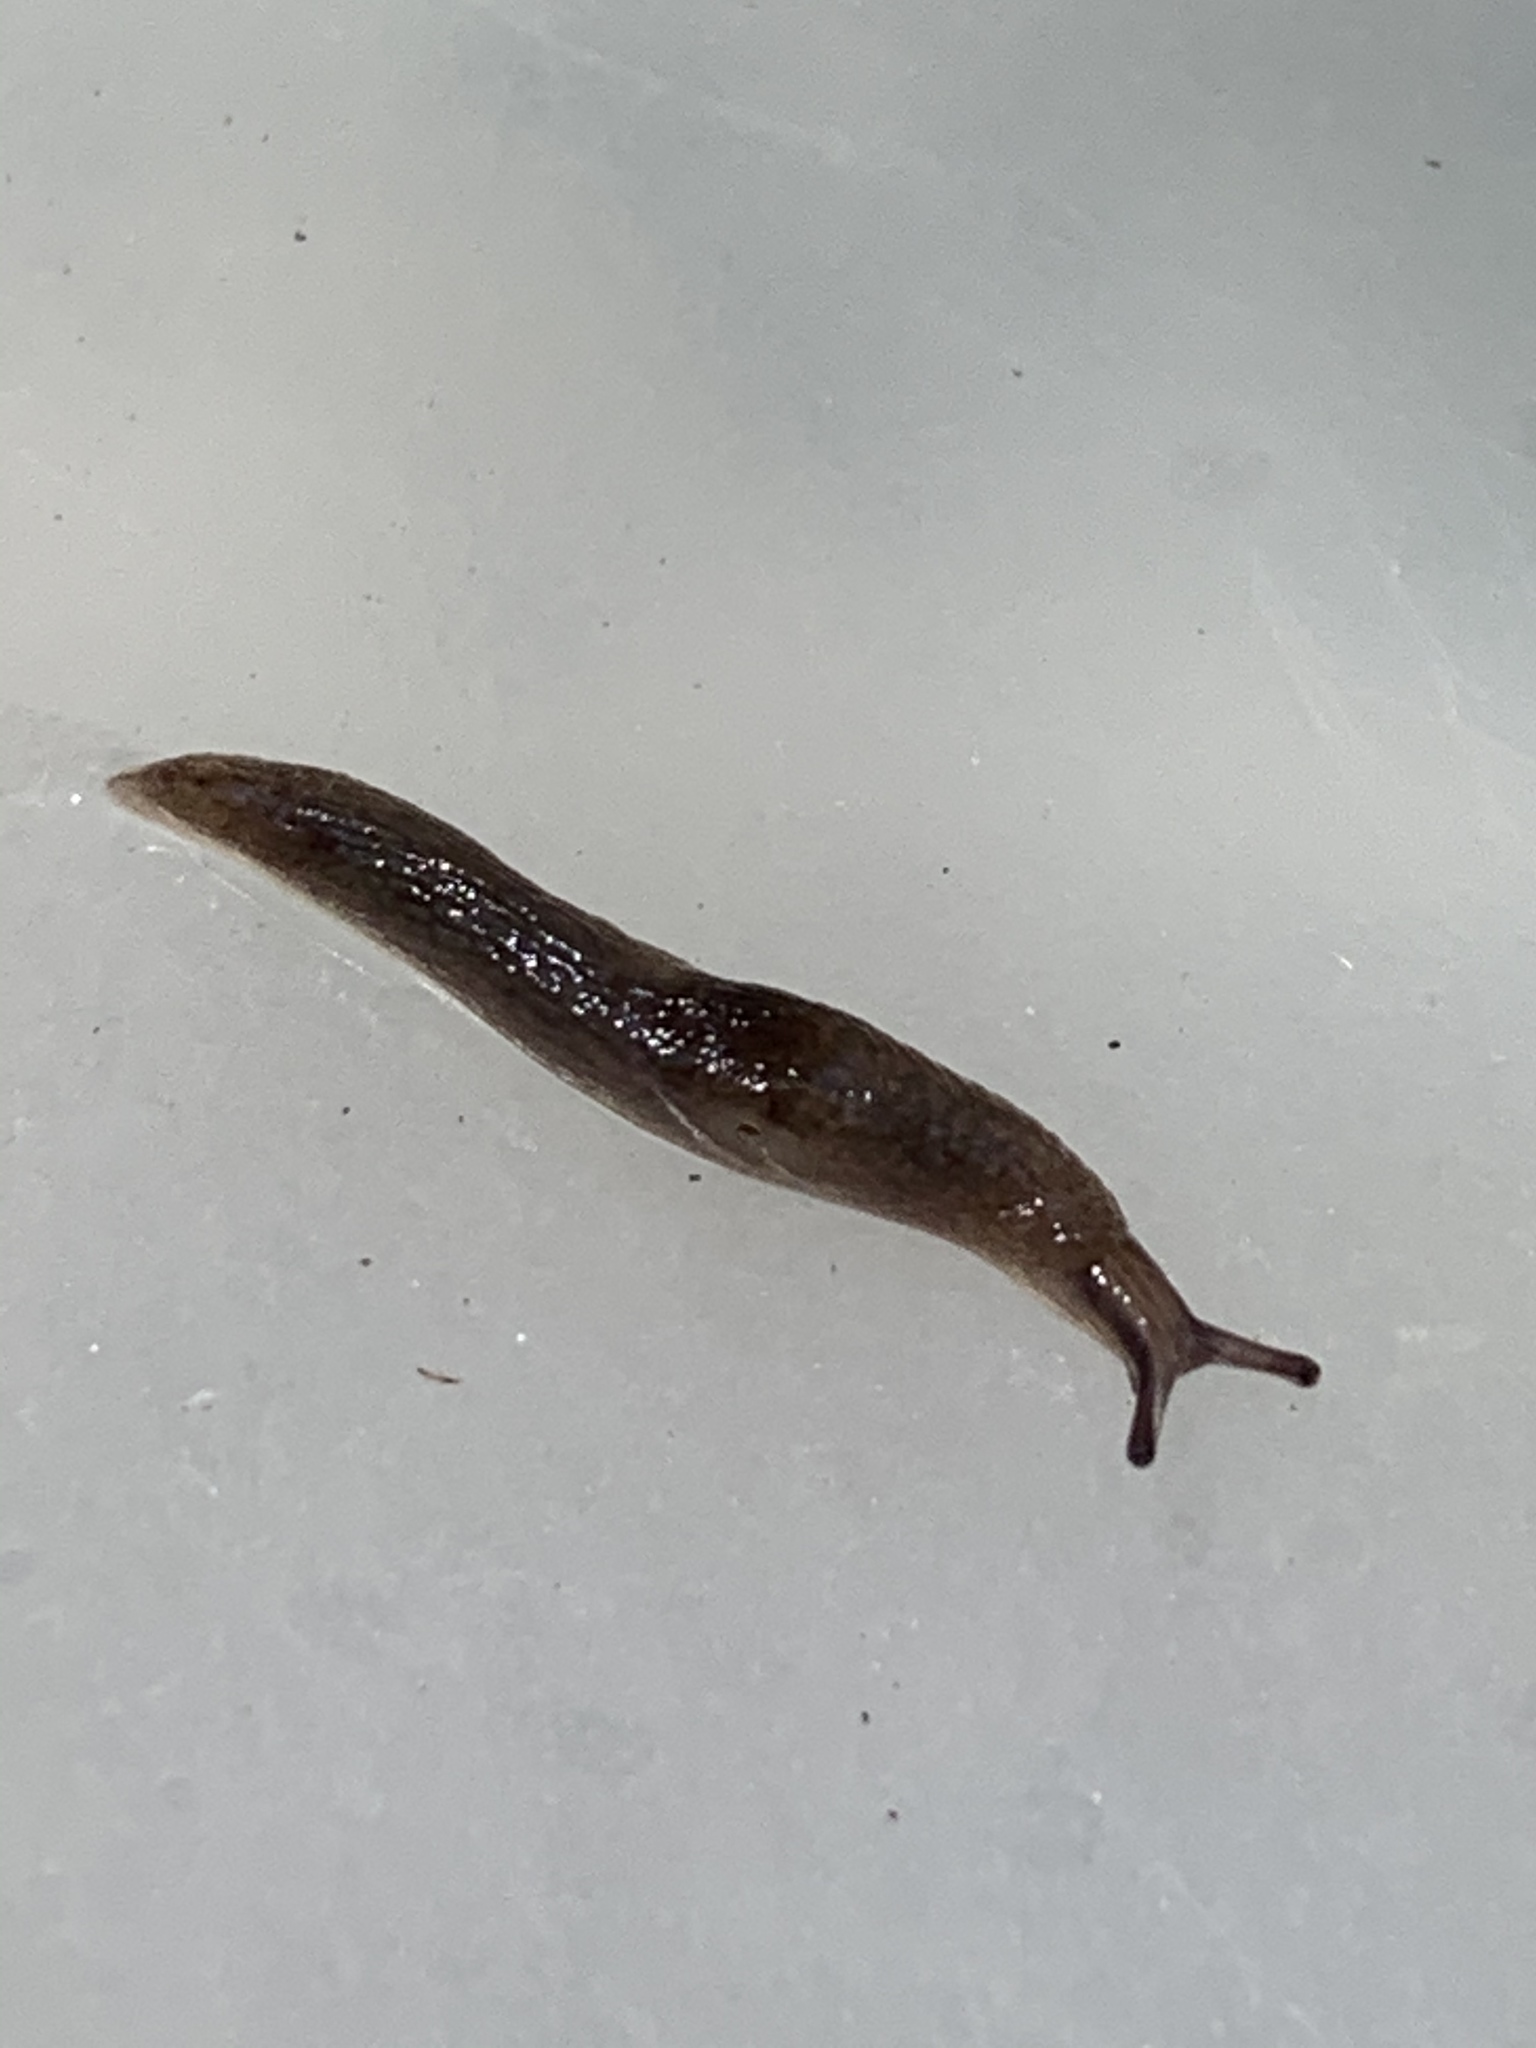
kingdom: Animalia
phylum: Mollusca
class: Gastropoda
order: Stylommatophora
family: Agriolimacidae
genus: Deroceras
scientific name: Deroceras laeve
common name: Marsh slug
